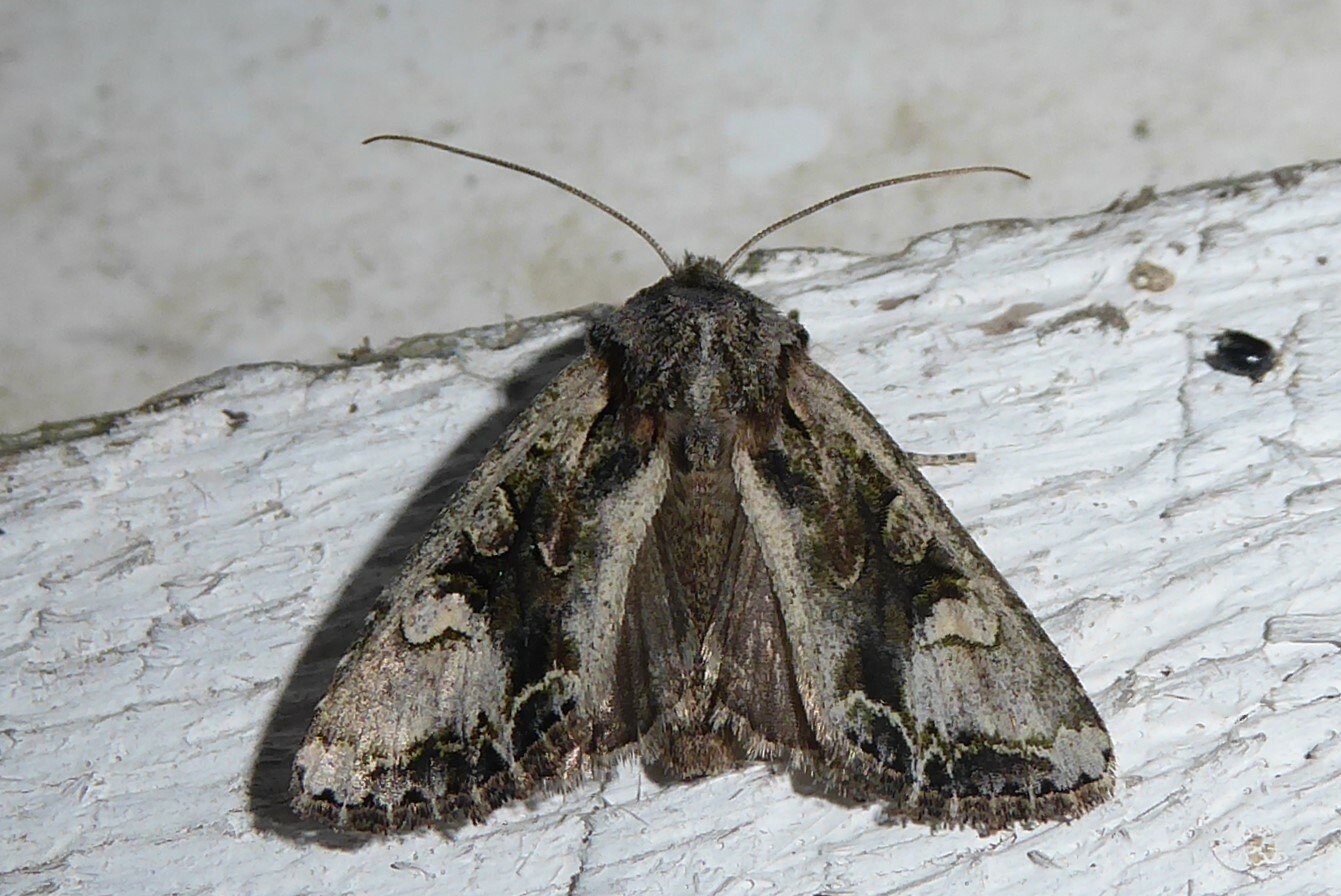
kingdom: Animalia
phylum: Arthropoda
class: Insecta
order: Lepidoptera
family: Noctuidae
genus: Ichneutica
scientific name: Ichneutica
